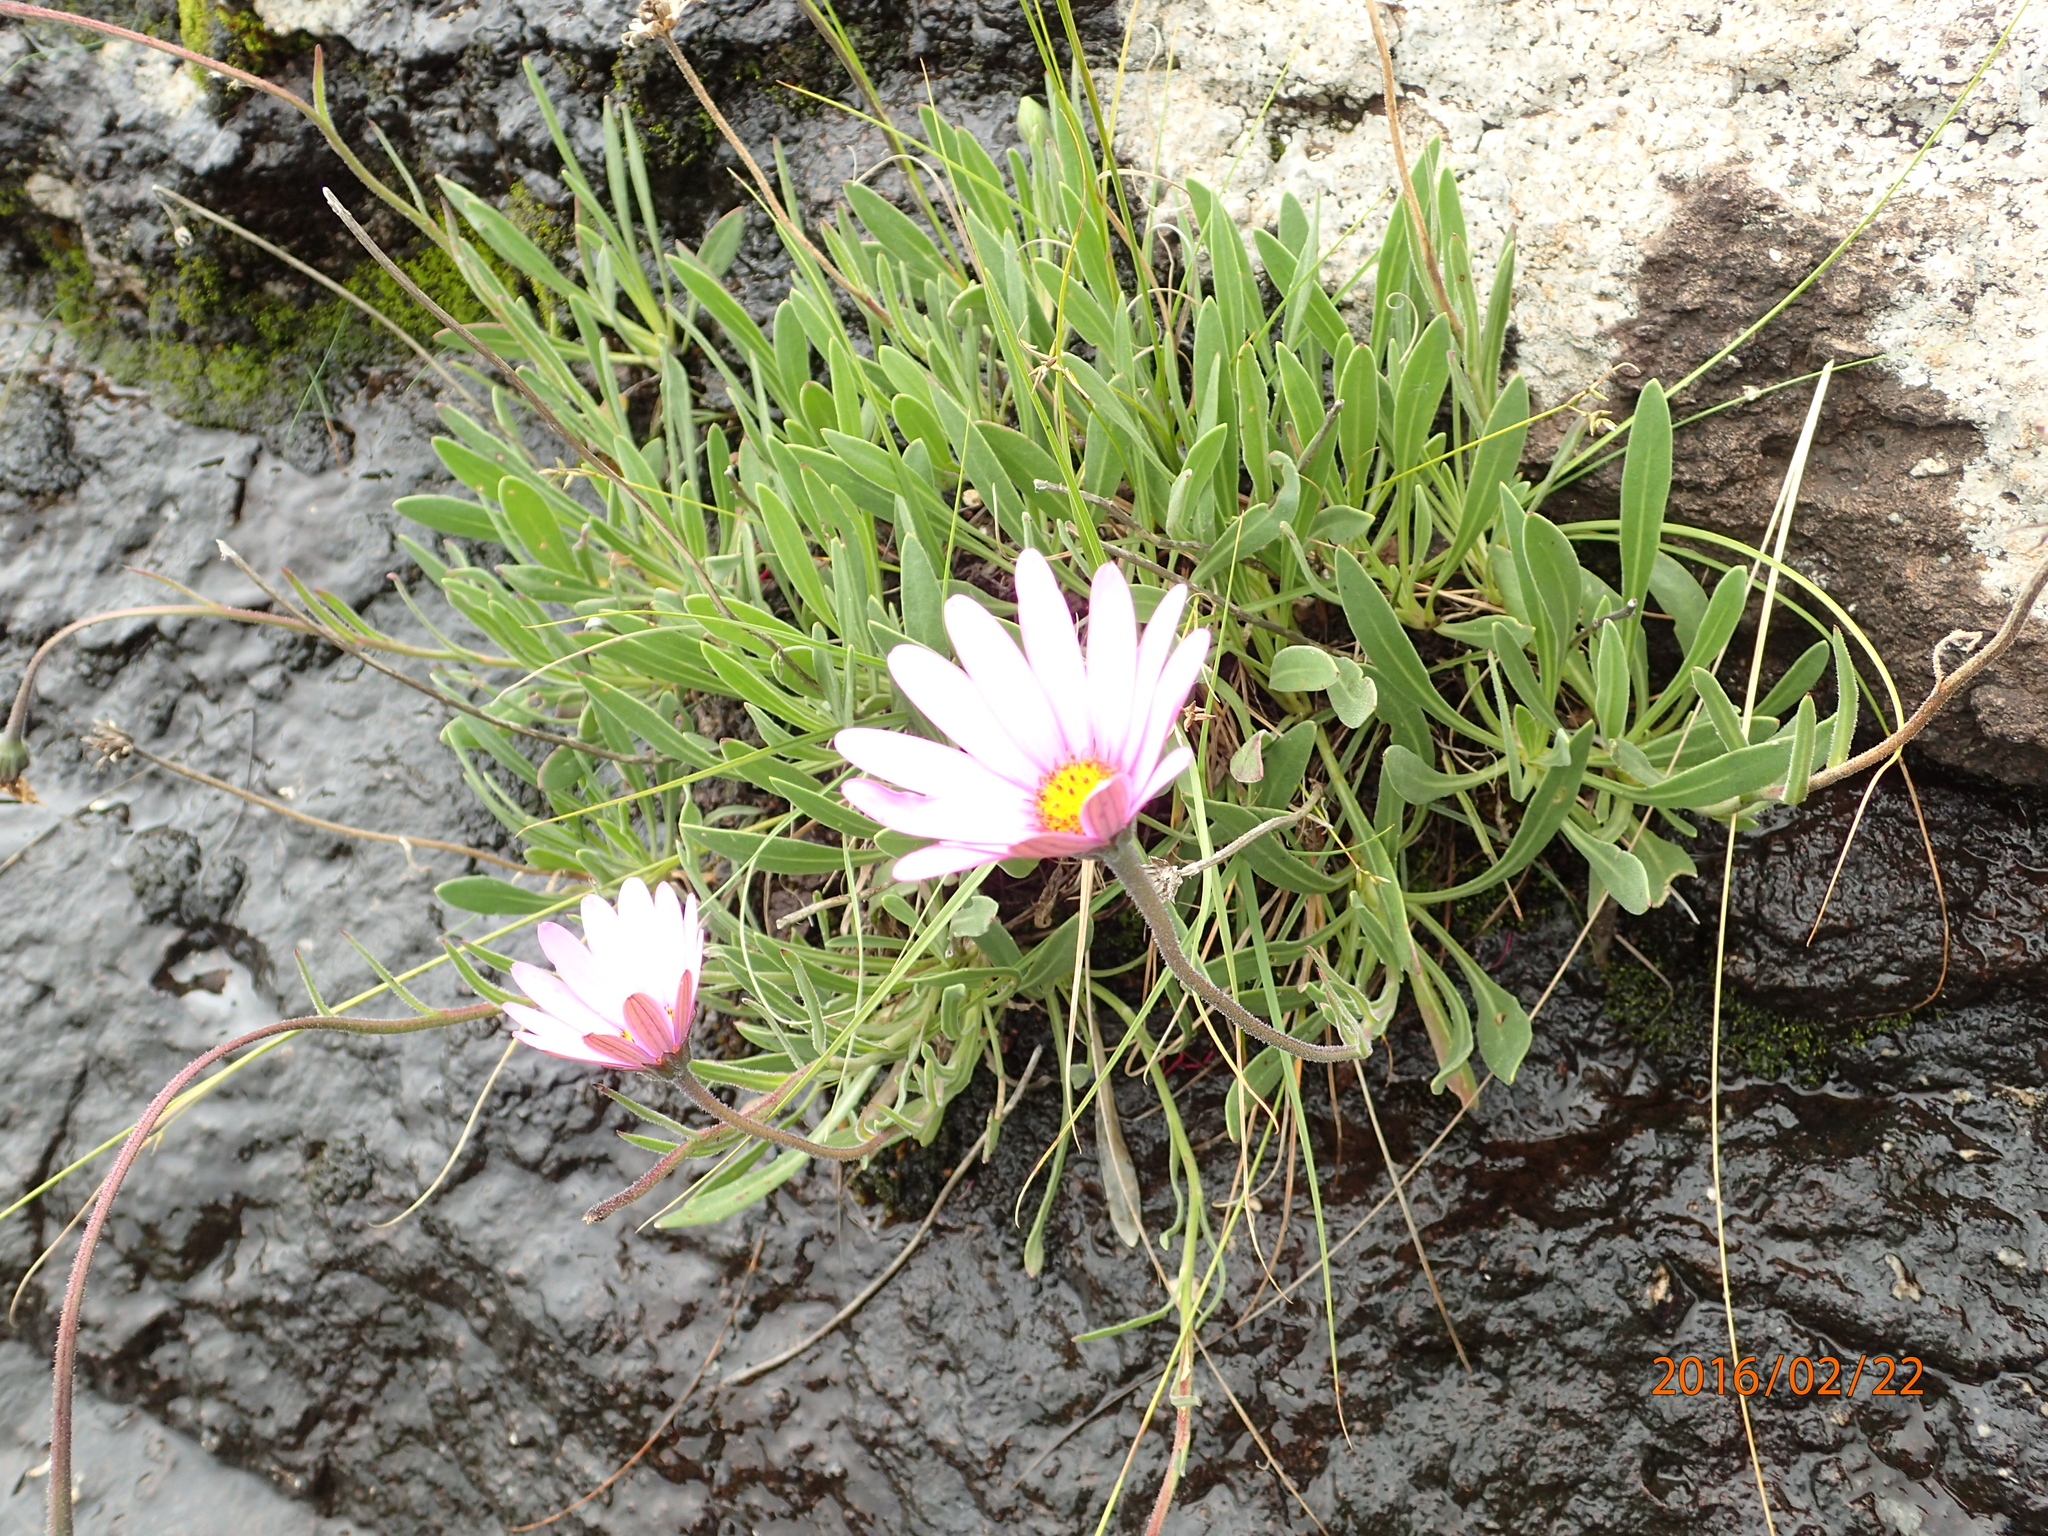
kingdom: Plantae
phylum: Tracheophyta
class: Magnoliopsida
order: Asterales
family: Asteraceae
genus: Dimorphotheca
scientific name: Dimorphotheca jucunda
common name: Osteospermum
